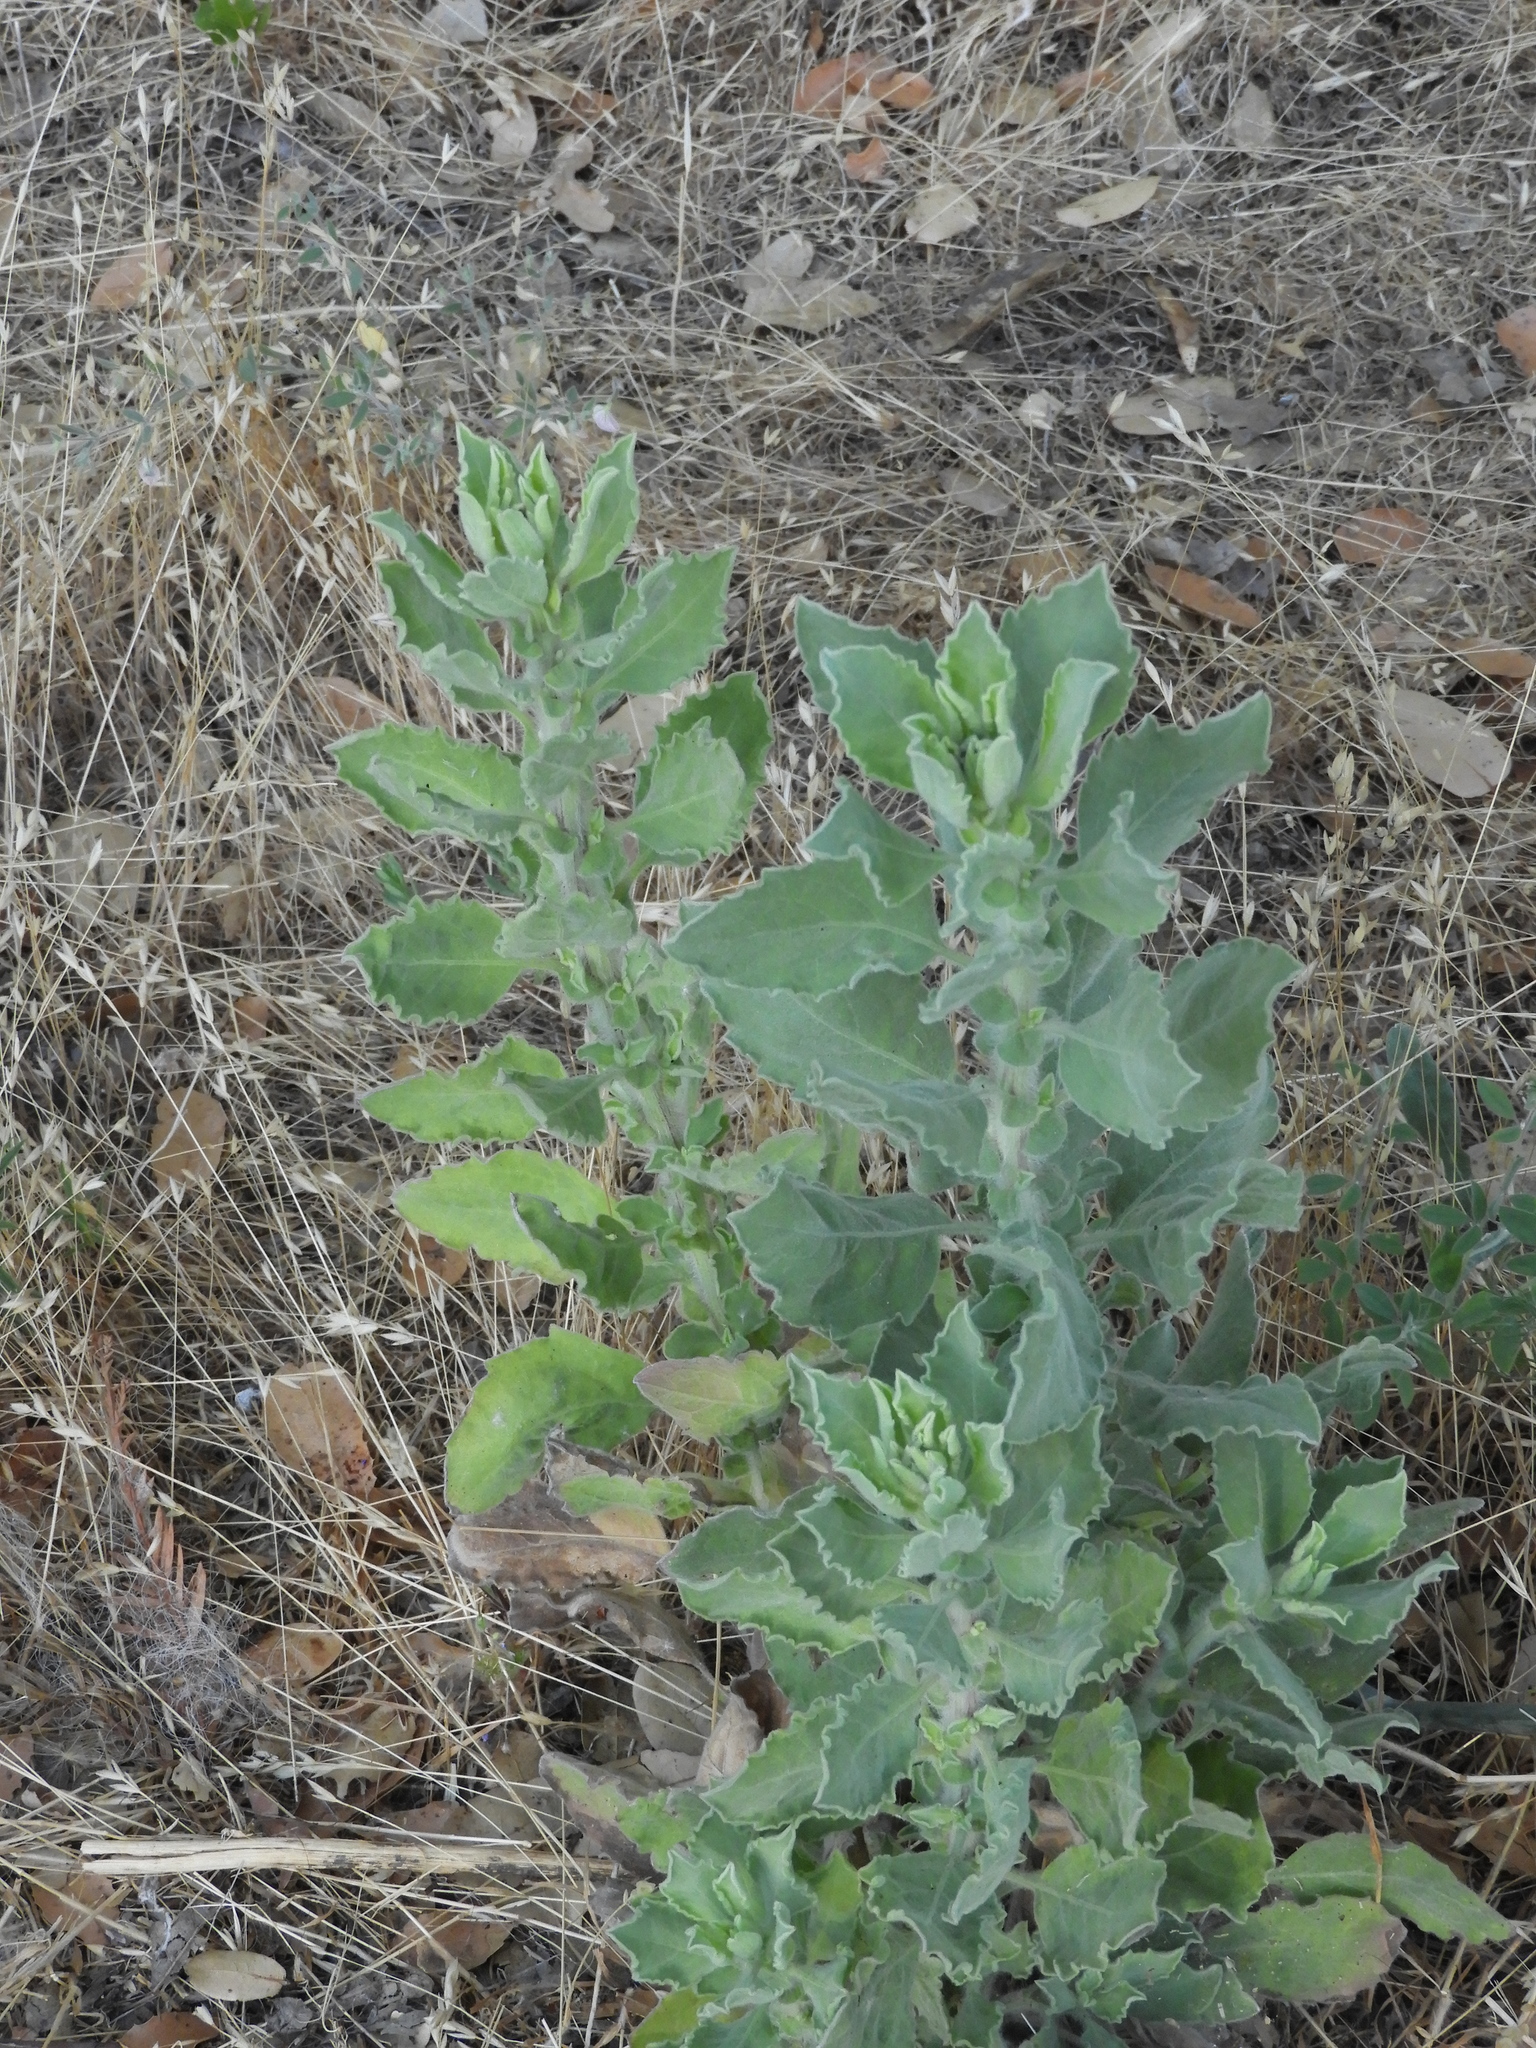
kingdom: Plantae
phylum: Tracheophyta
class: Magnoliopsida
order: Asterales
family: Asteraceae
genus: Heterotheca
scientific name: Heterotheca grandiflora
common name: Telegraphweed
